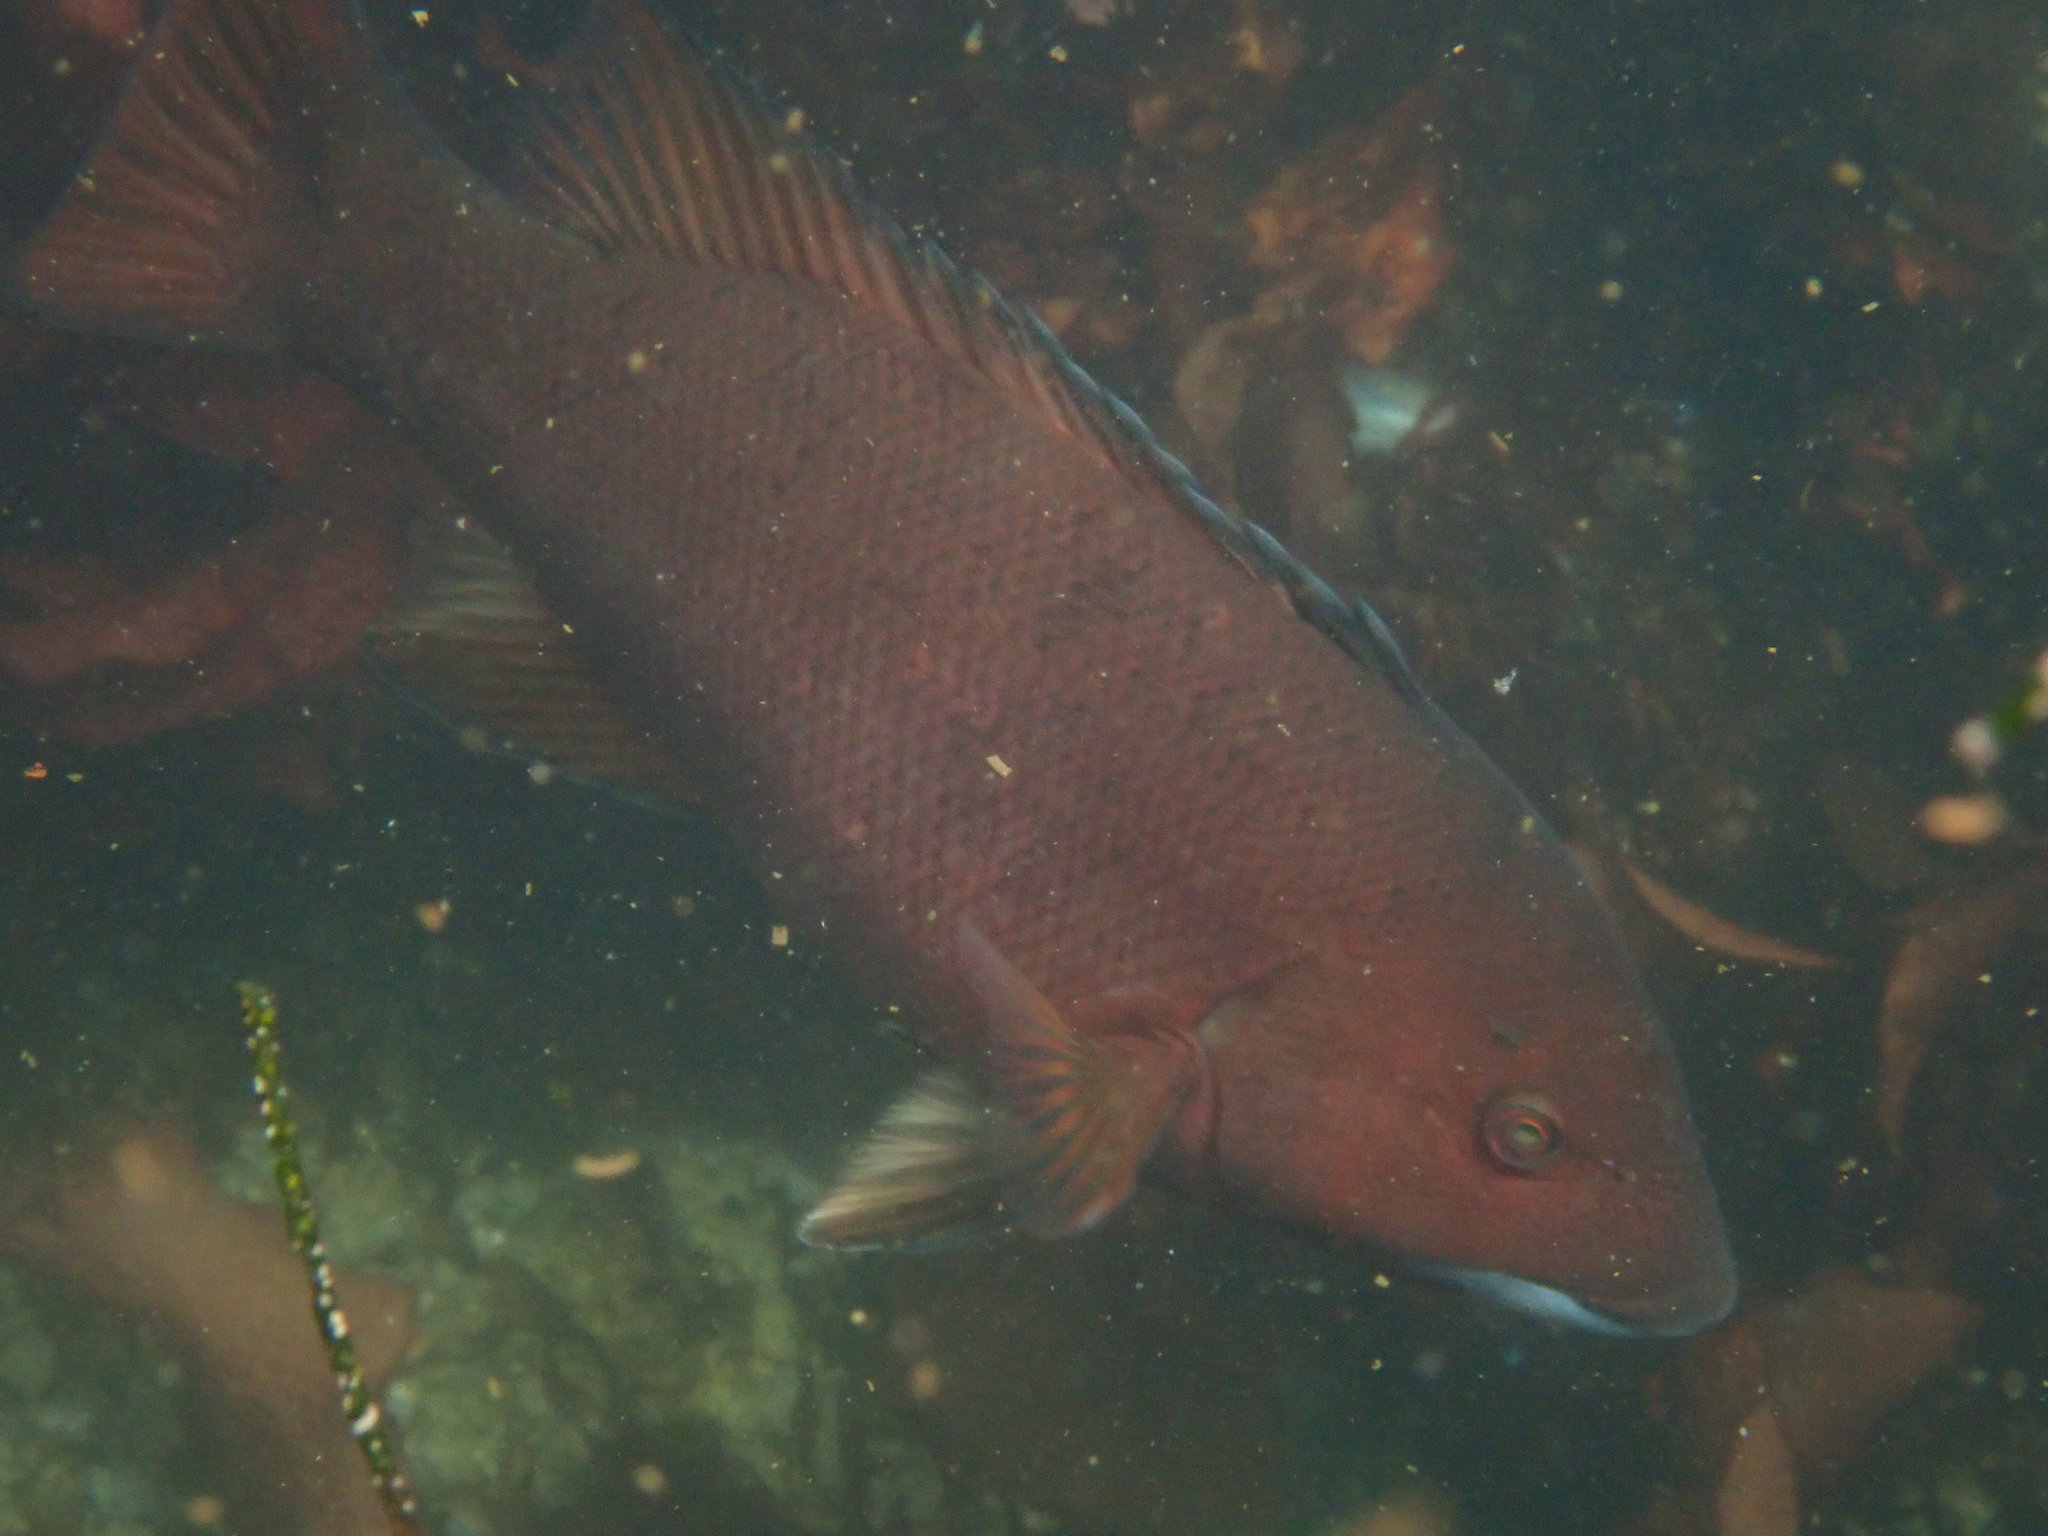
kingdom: Animalia
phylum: Chordata
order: Perciformes
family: Labridae
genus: Semicossyphus
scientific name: Semicossyphus pulcher
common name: California sheephead
